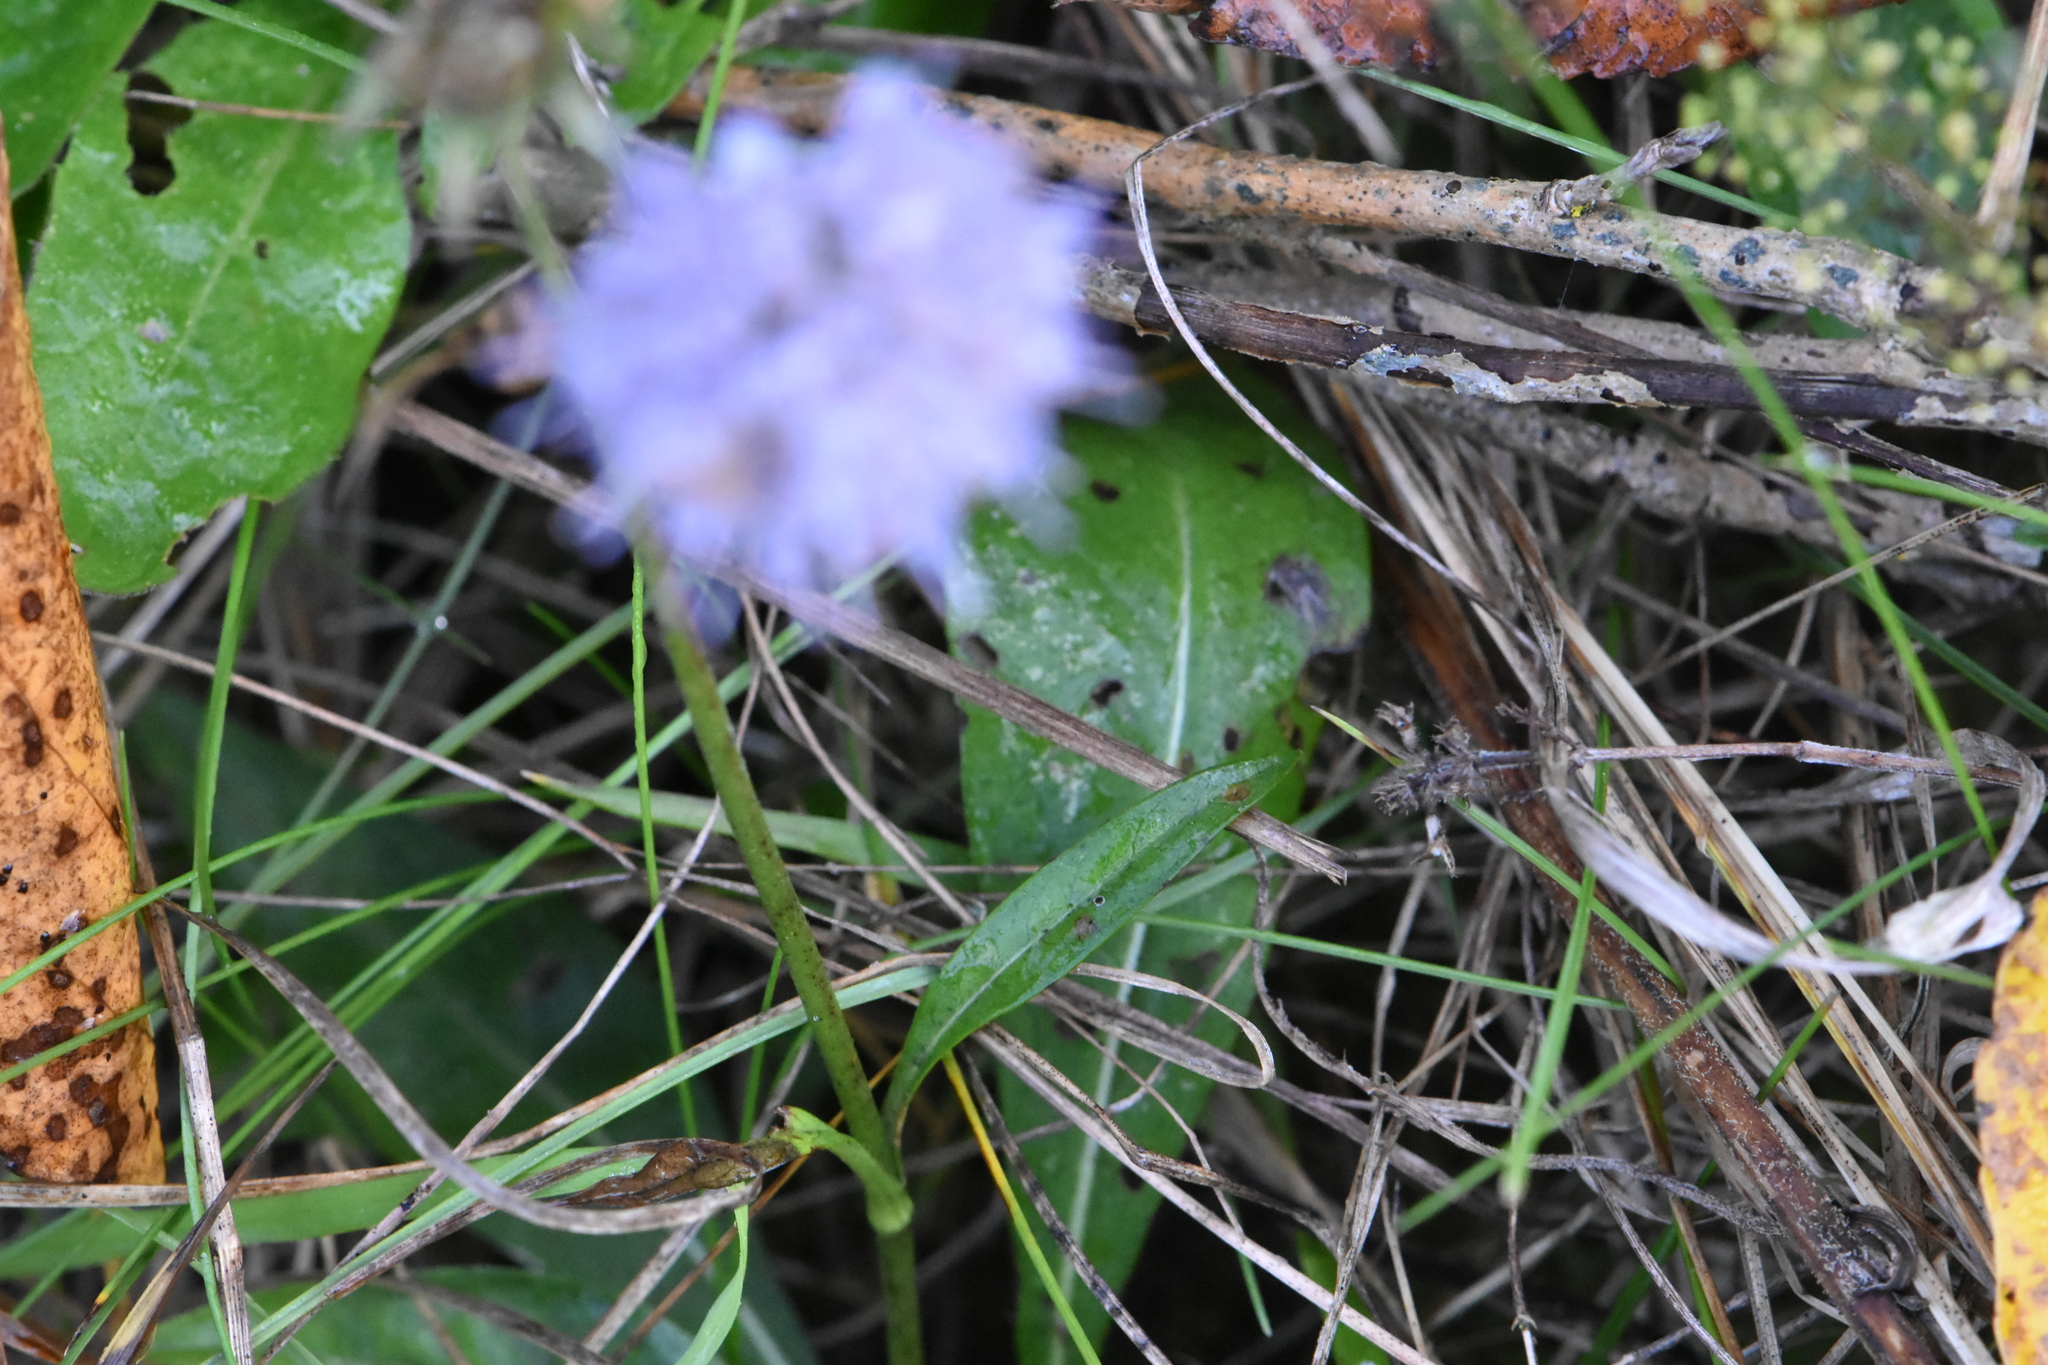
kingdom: Plantae
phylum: Tracheophyta
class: Magnoliopsida
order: Dipsacales
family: Caprifoliaceae
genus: Succisa
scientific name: Succisa pratensis
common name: Devil's-bit
